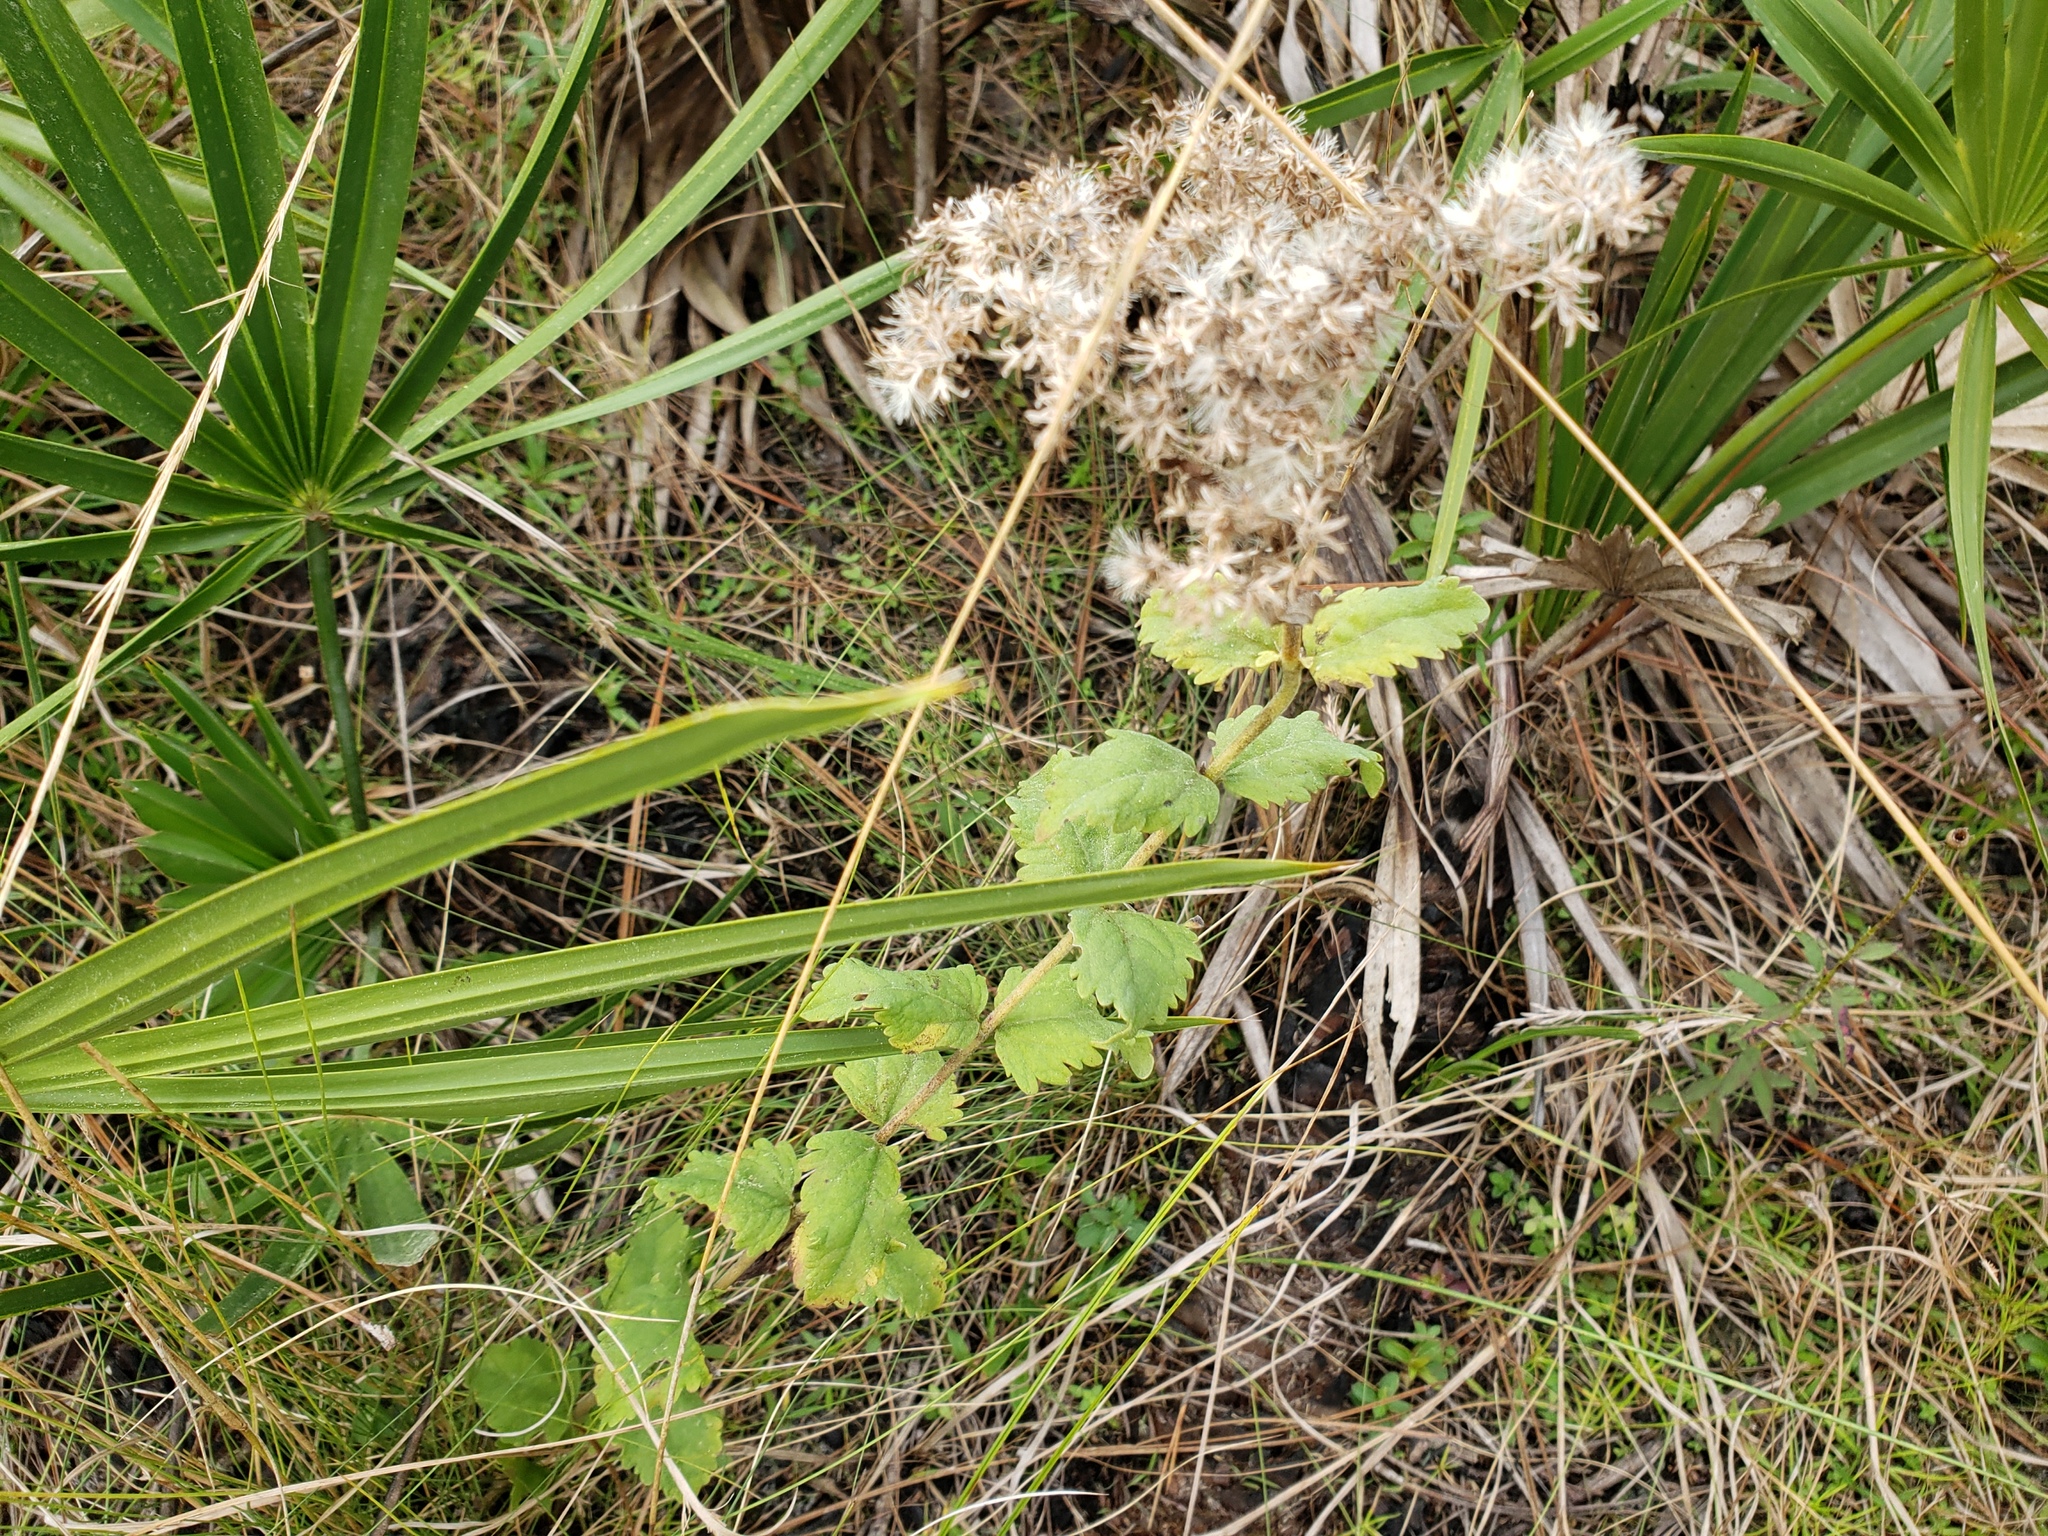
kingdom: Plantae
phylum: Tracheophyta
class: Magnoliopsida
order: Asterales
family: Asteraceae
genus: Eupatorium
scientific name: Eupatorium rotundifolium
